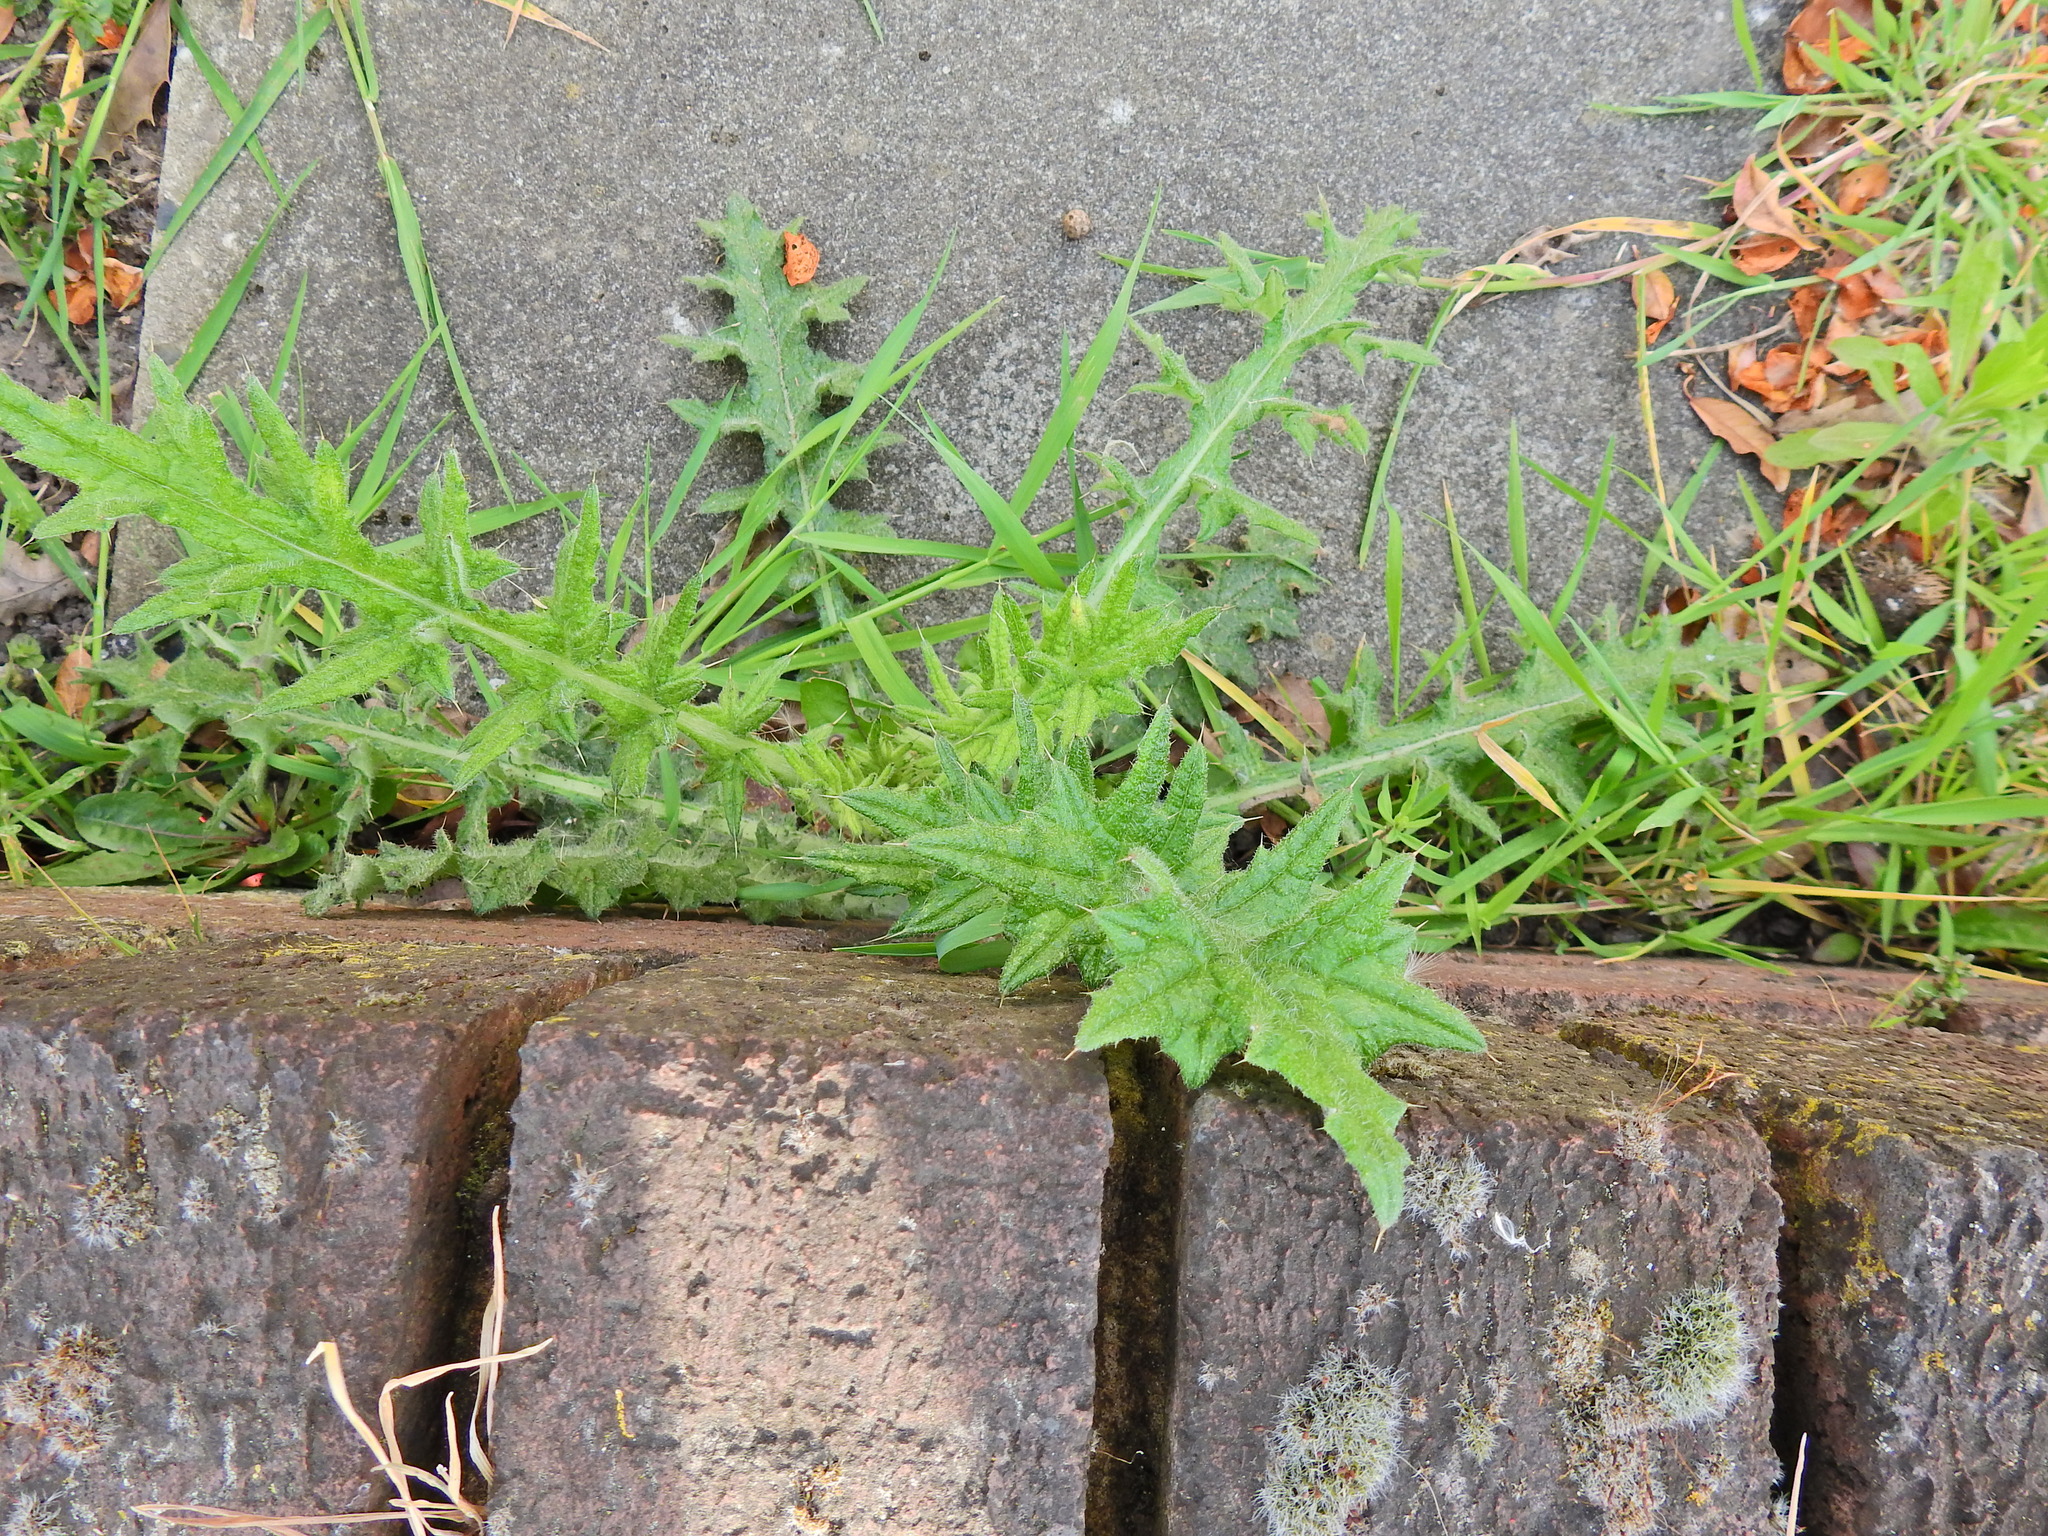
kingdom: Plantae
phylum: Tracheophyta
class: Magnoliopsida
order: Asterales
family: Asteraceae
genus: Cirsium
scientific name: Cirsium vulgare
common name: Bull thistle
